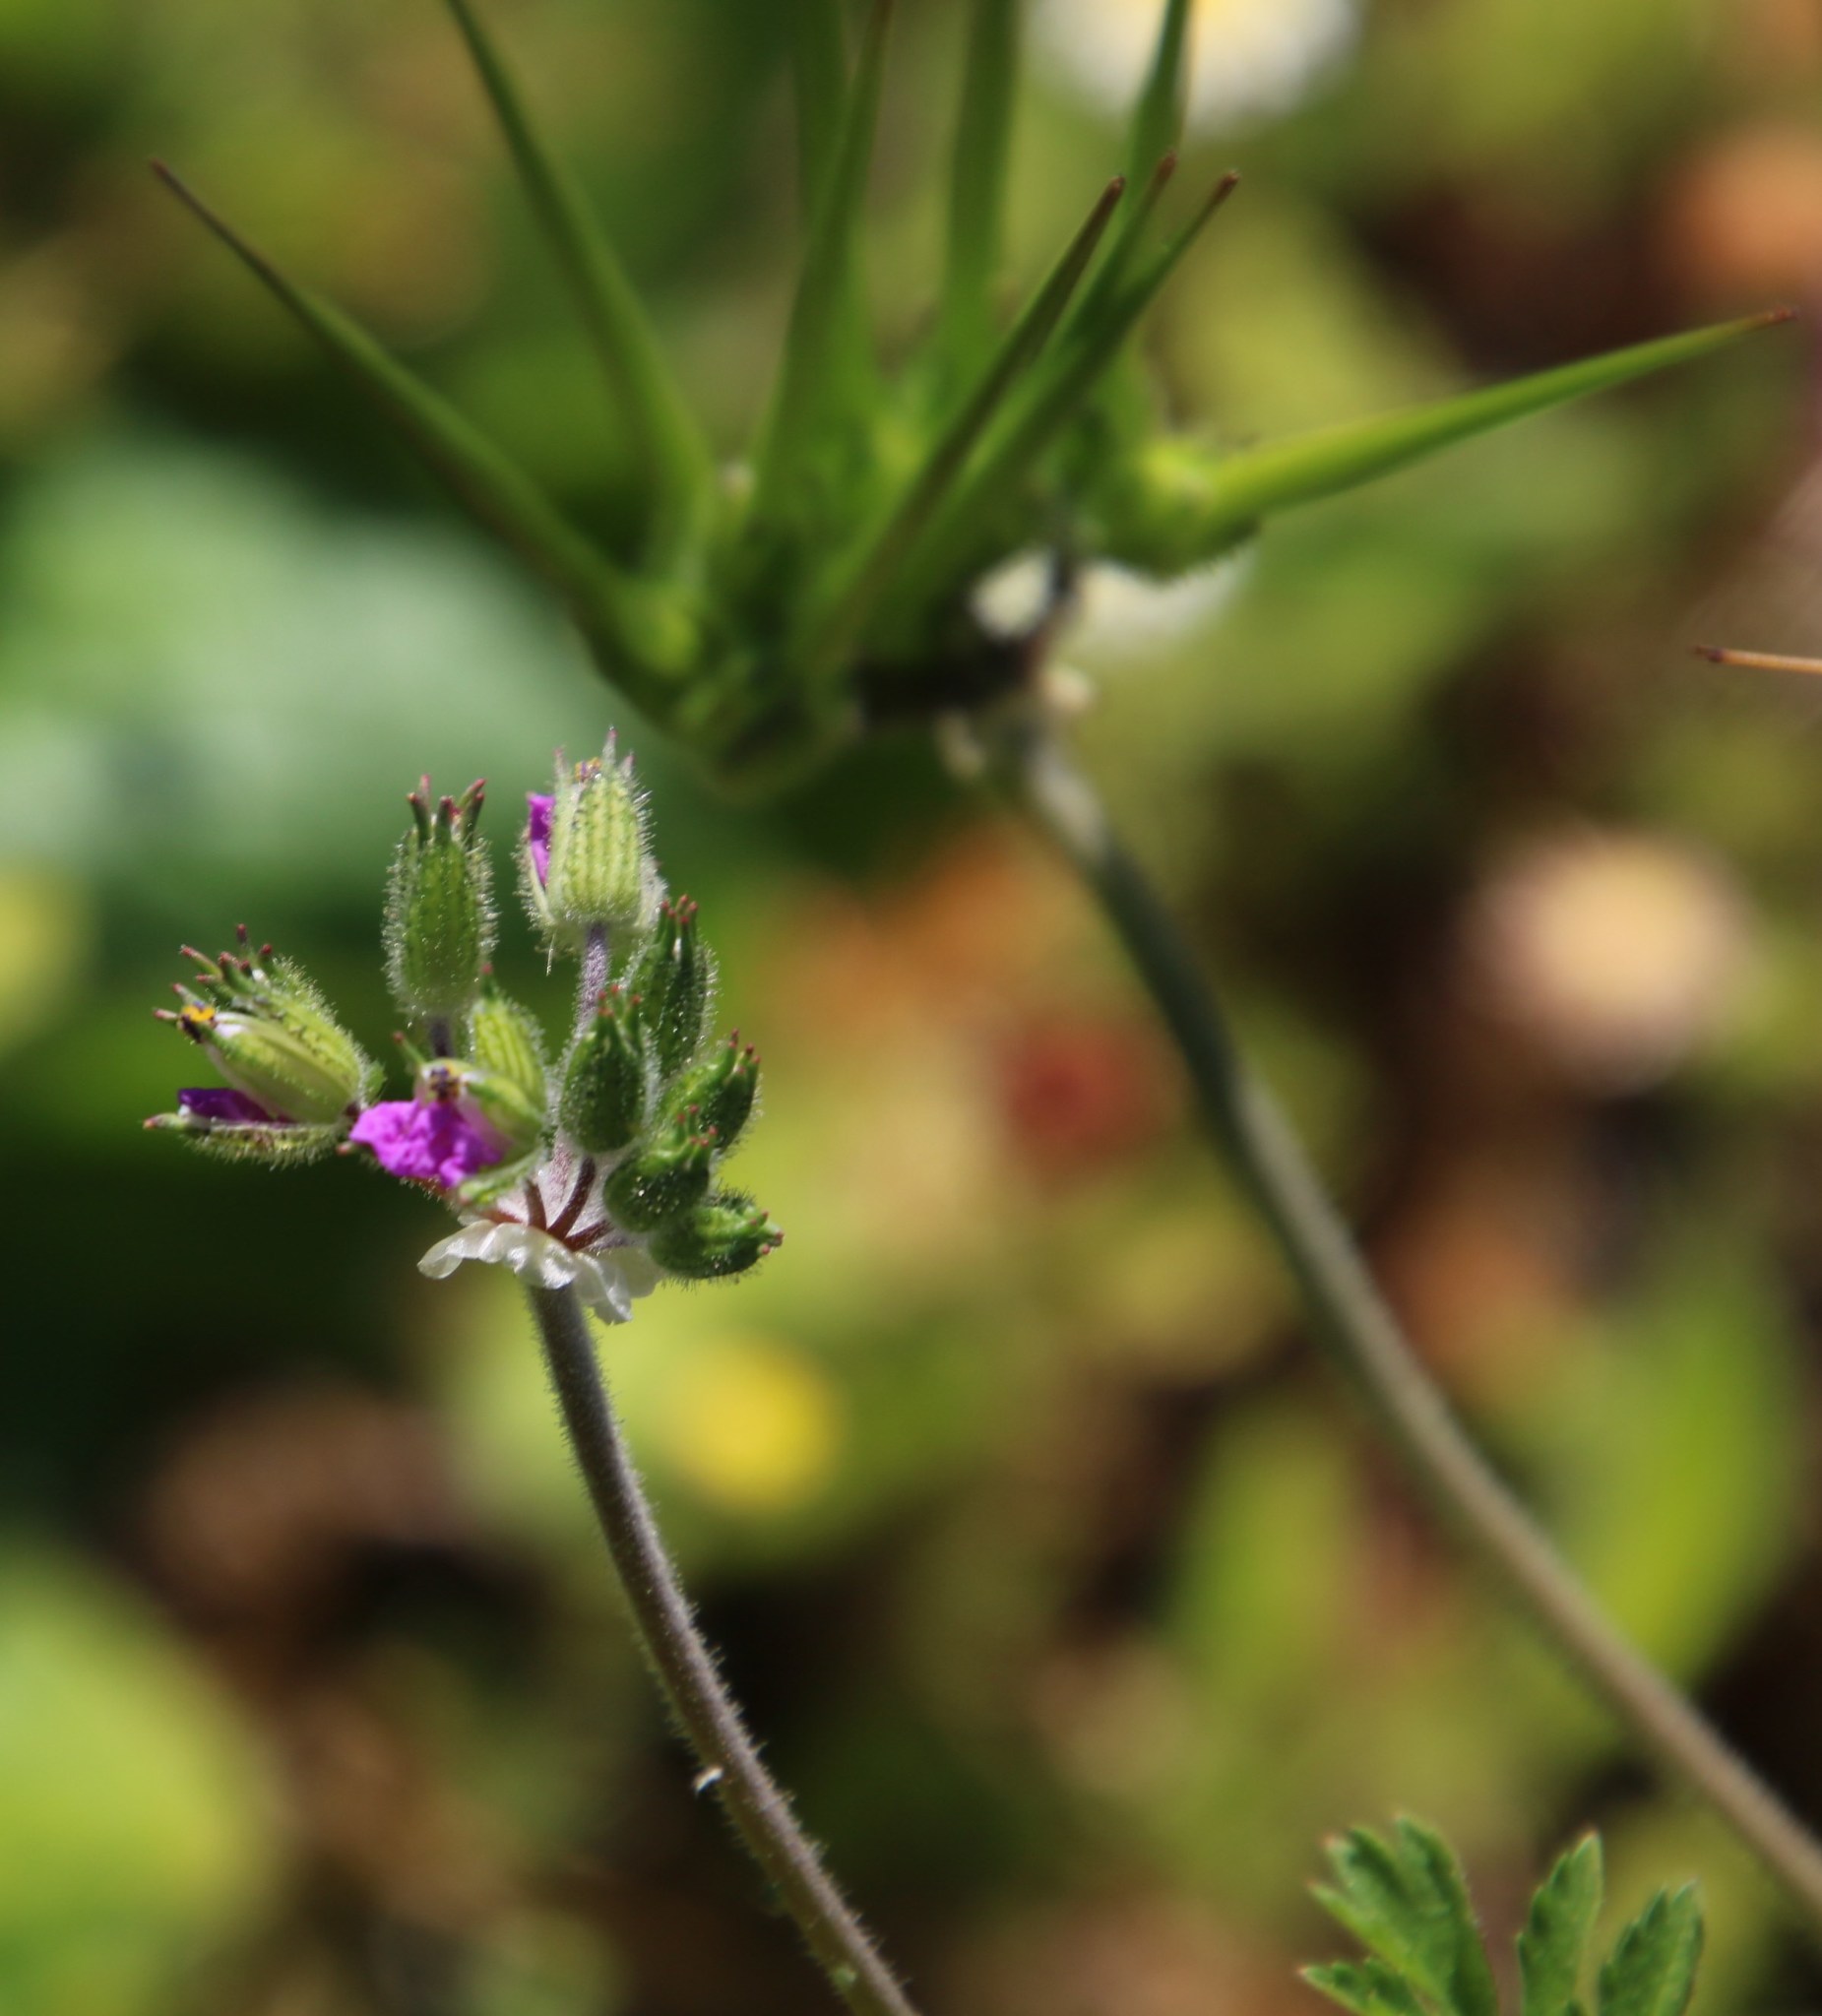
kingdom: Plantae
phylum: Tracheophyta
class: Magnoliopsida
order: Geraniales
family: Geraniaceae
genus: Erodium
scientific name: Erodium moschatum
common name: Musk stork's-bill
